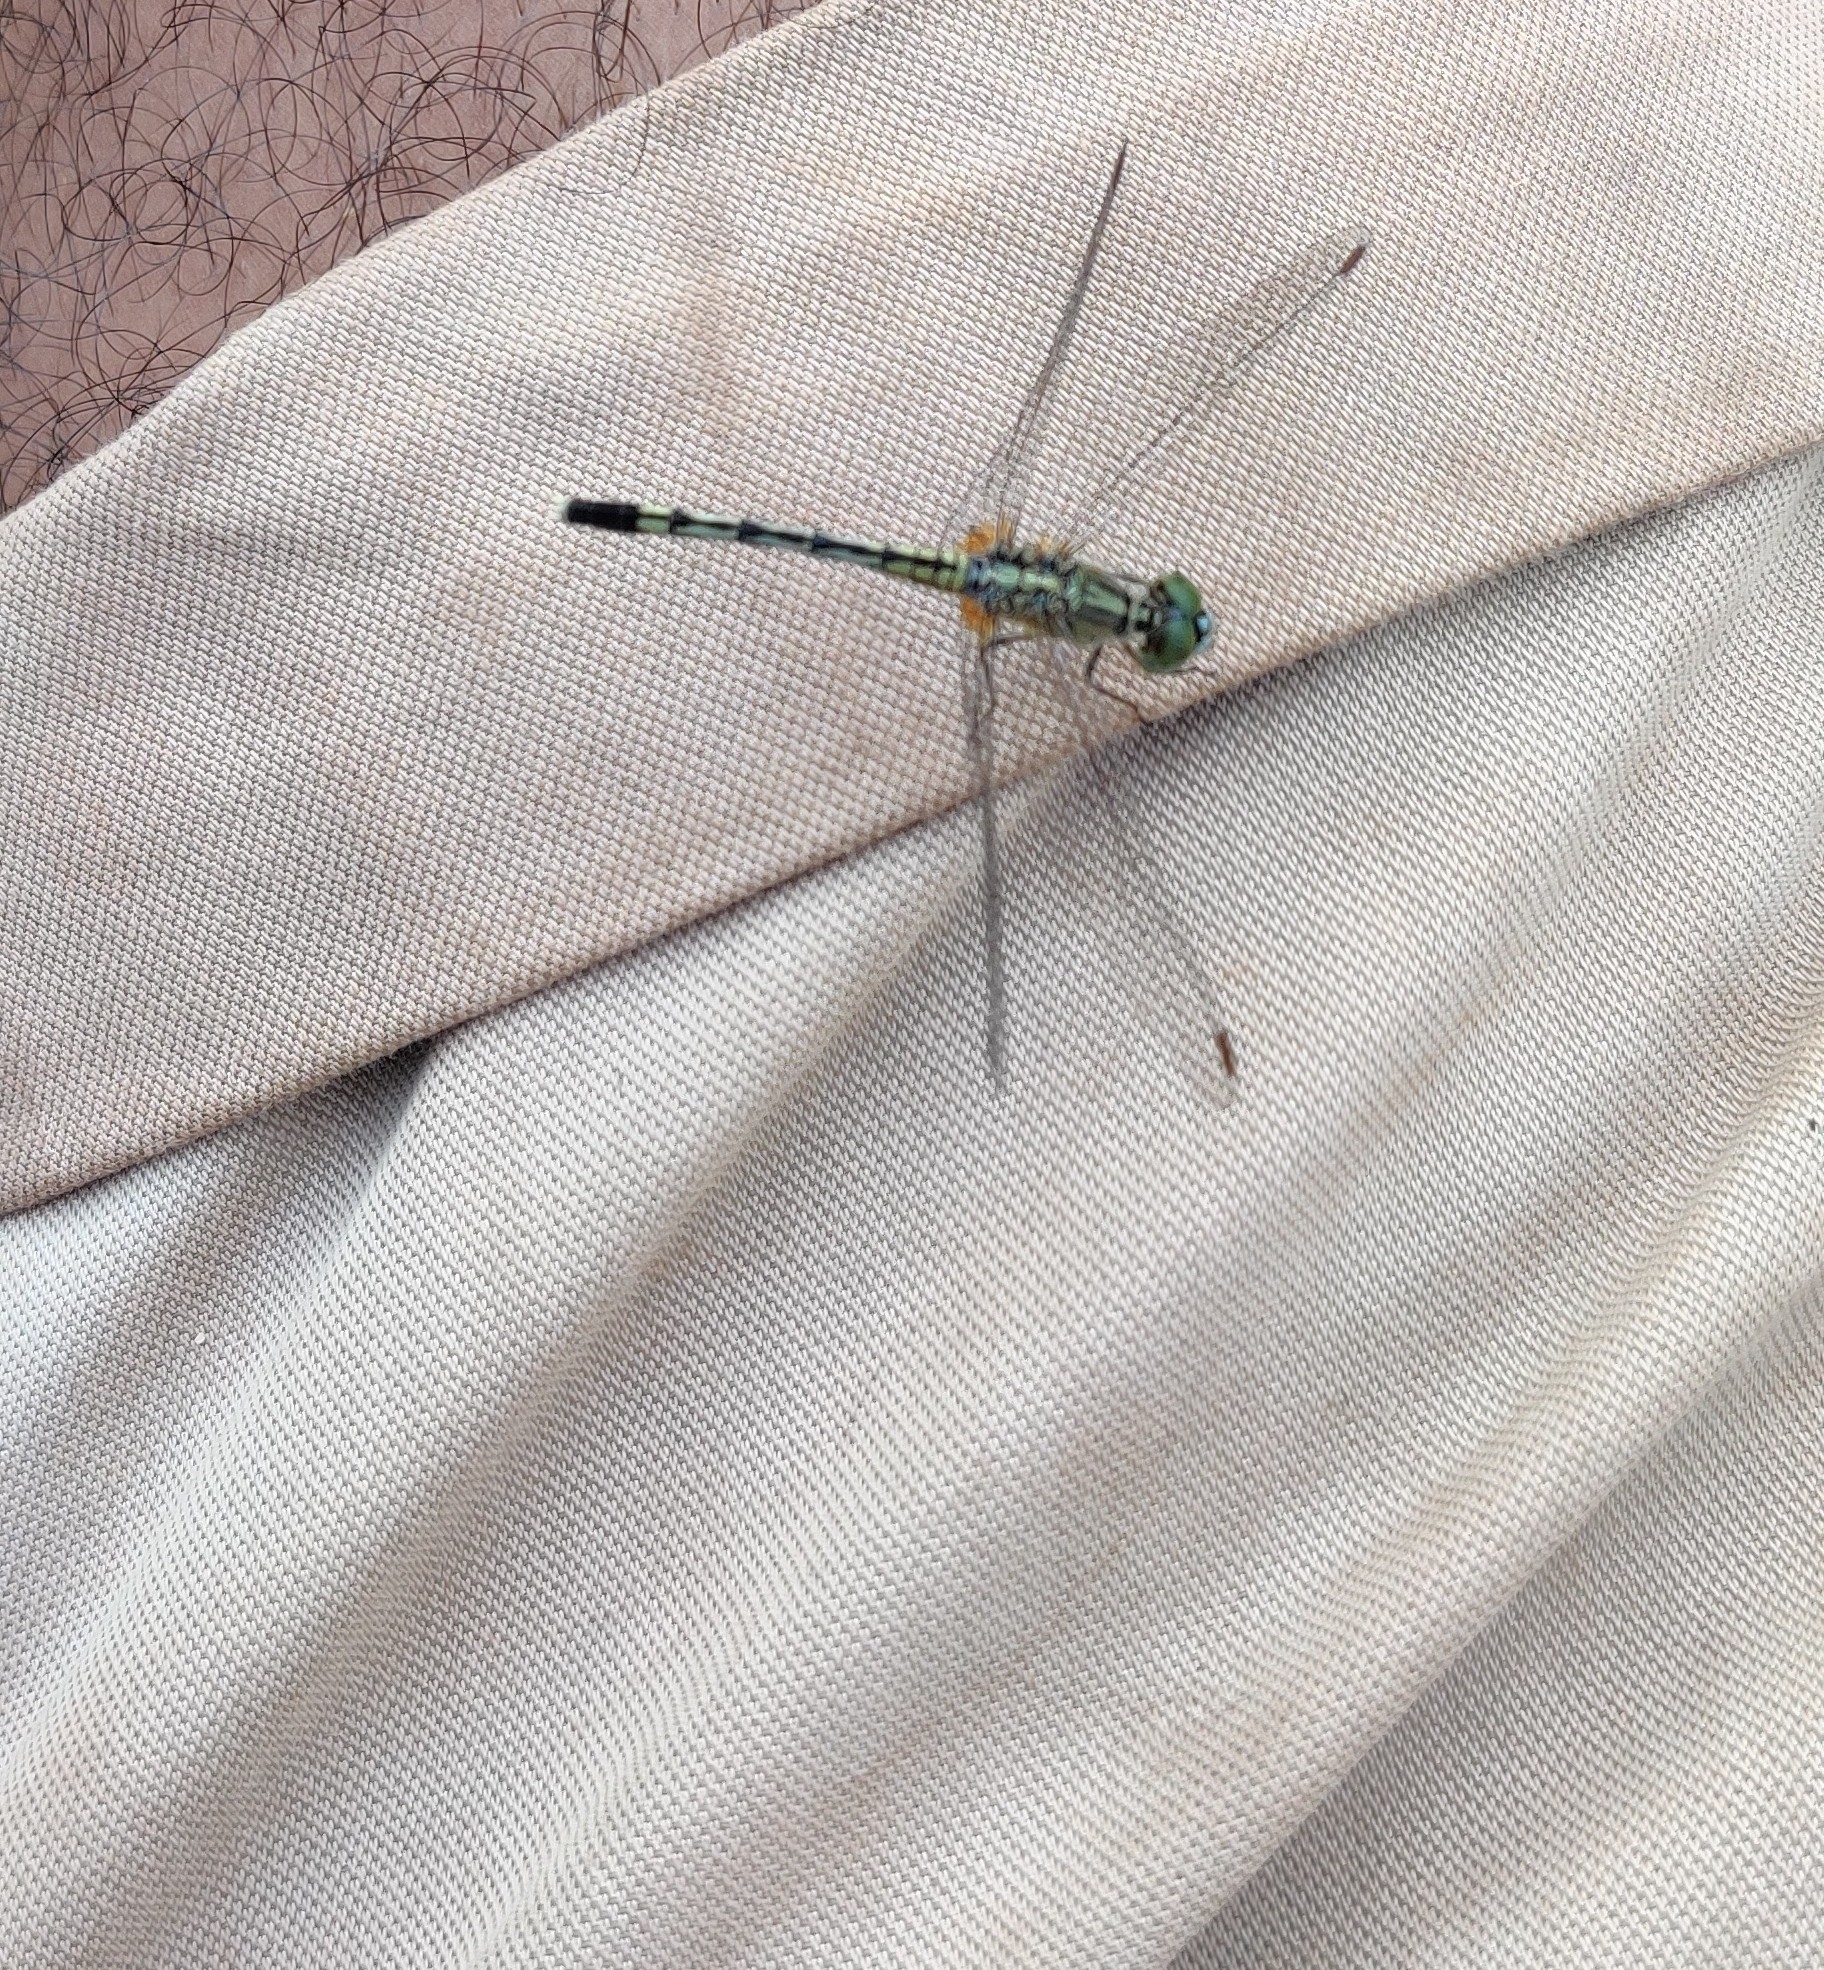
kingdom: Animalia
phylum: Arthropoda
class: Insecta
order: Odonata
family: Libellulidae
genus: Diplacodes
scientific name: Diplacodes trivialis
